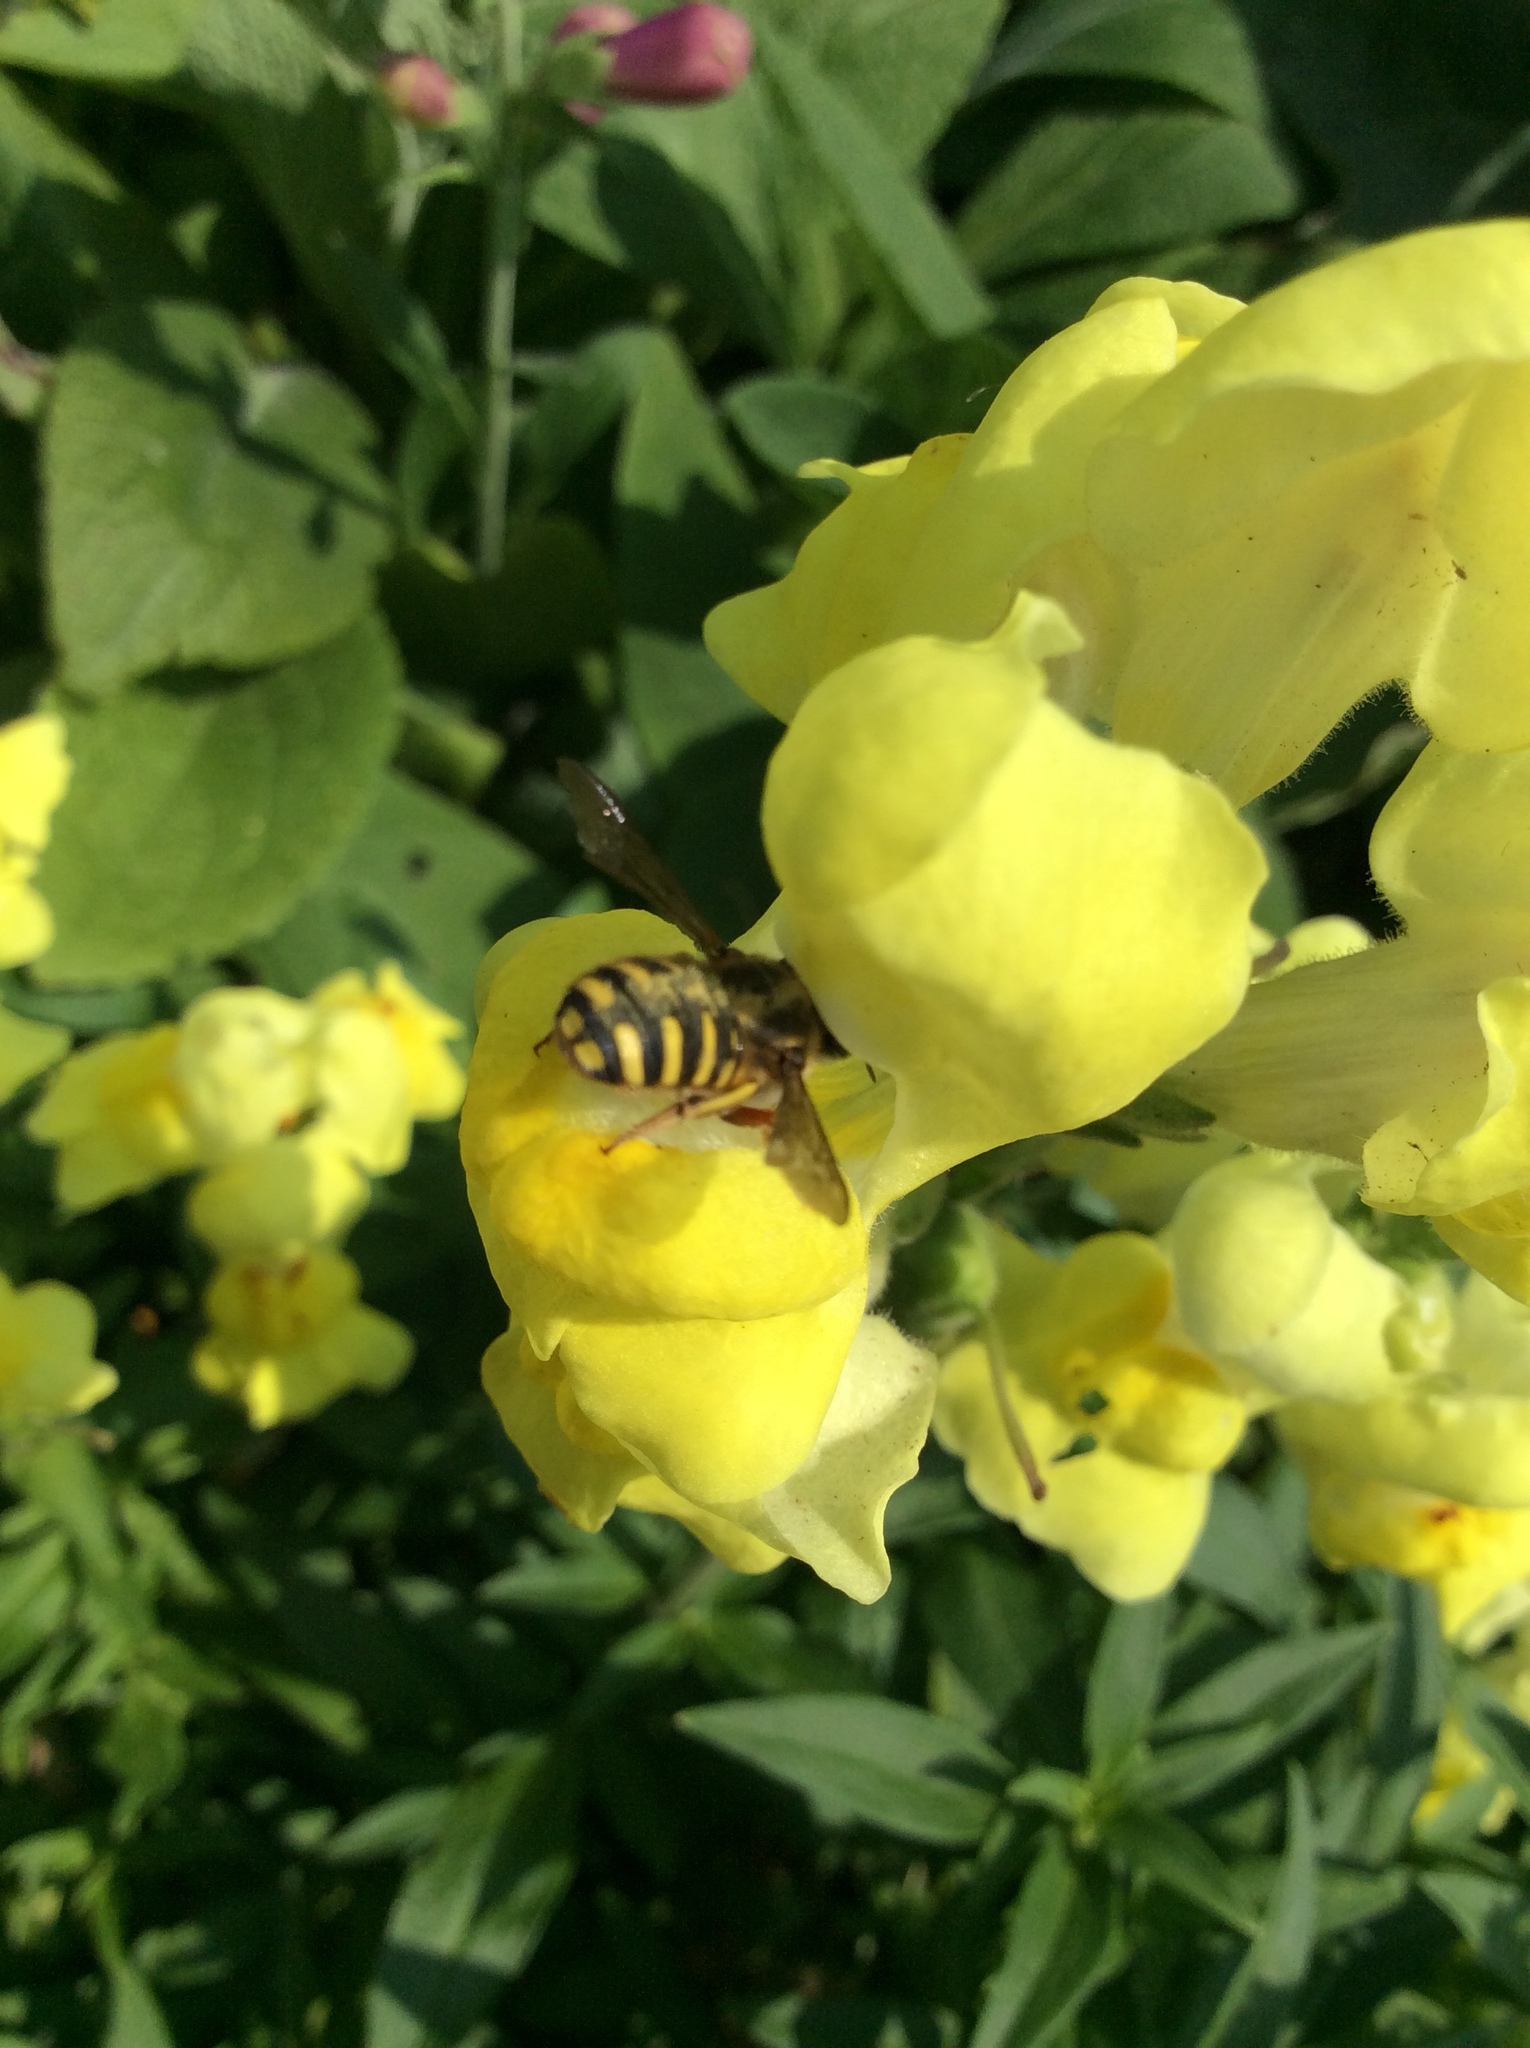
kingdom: Animalia
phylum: Arthropoda
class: Insecta
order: Hymenoptera
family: Megachilidae
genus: Anthidium
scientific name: Anthidium manicatum
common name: Wool carder bee
